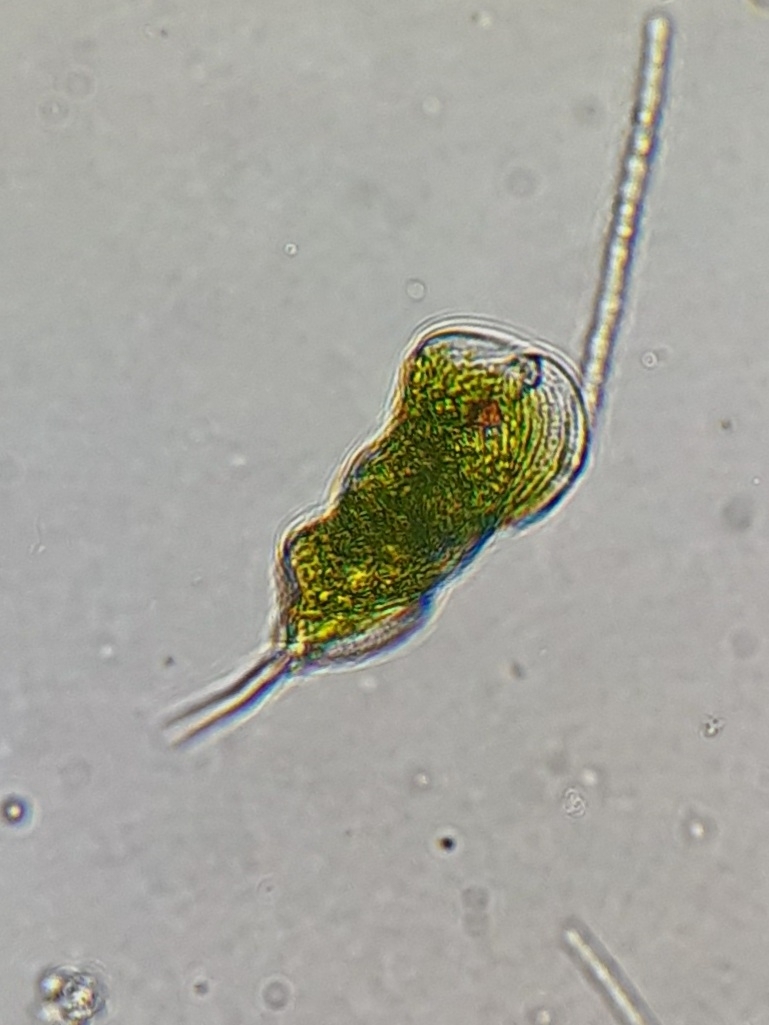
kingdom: Protozoa
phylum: Euglenozoa
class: Euglenoidea
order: Euglenida
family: Phacidae
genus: Phacus
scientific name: Phacus helikoides
